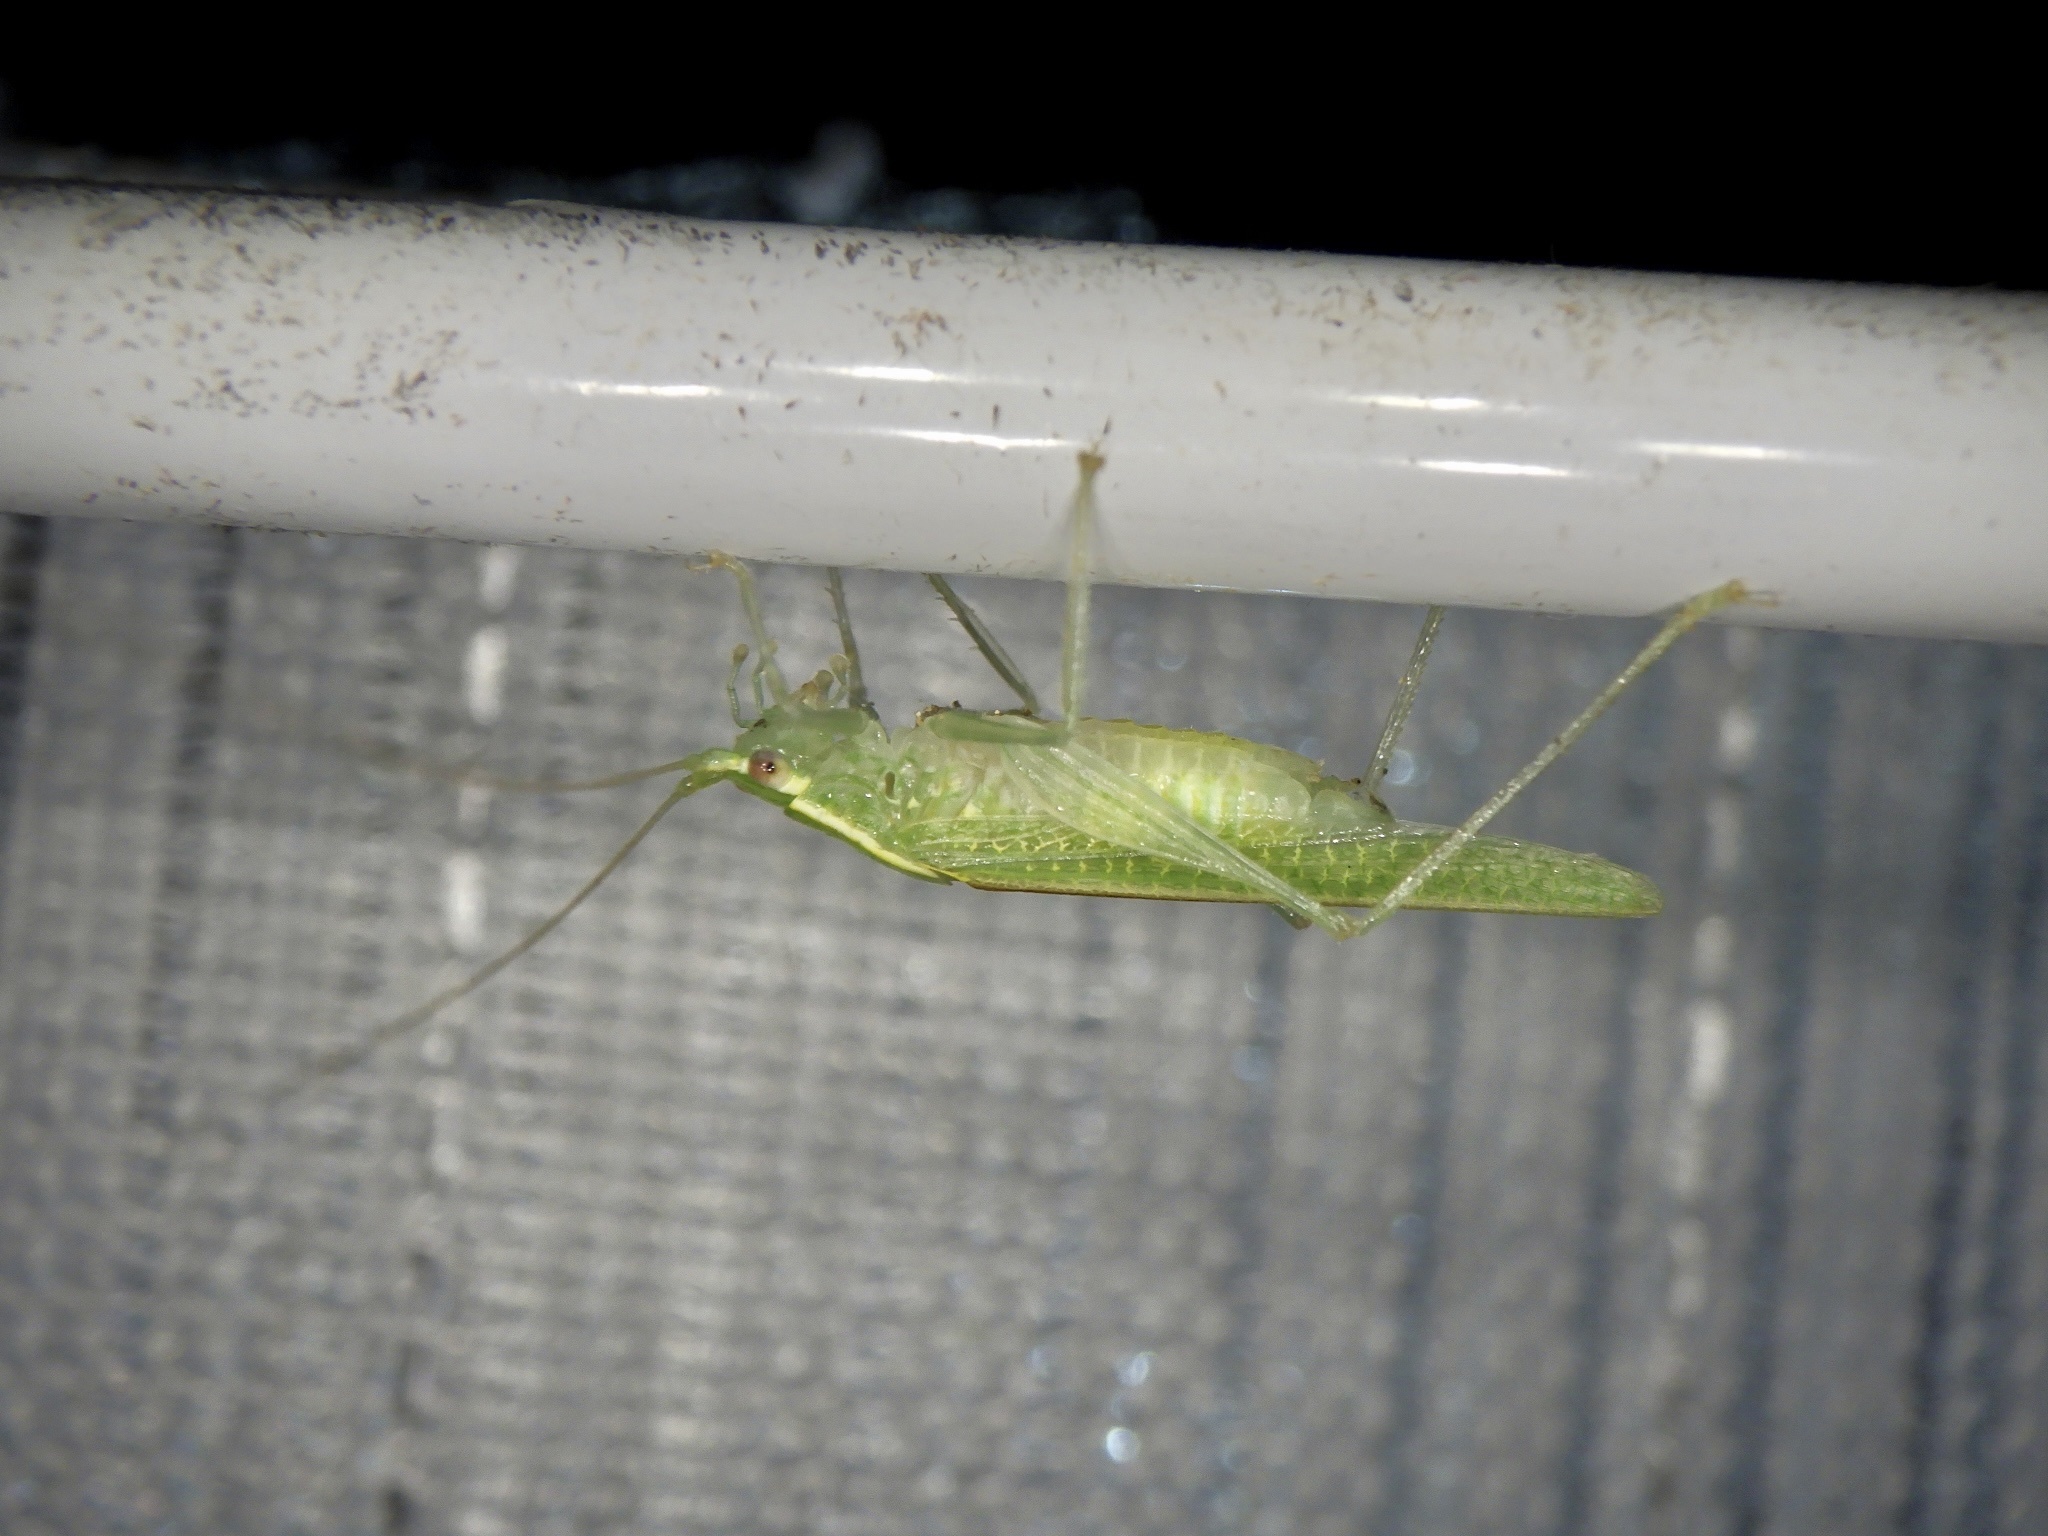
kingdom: Animalia
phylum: Arthropoda
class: Insecta
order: Orthoptera
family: Tettigoniidae
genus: Leptoteratura
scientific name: Leptoteratura albicorne
